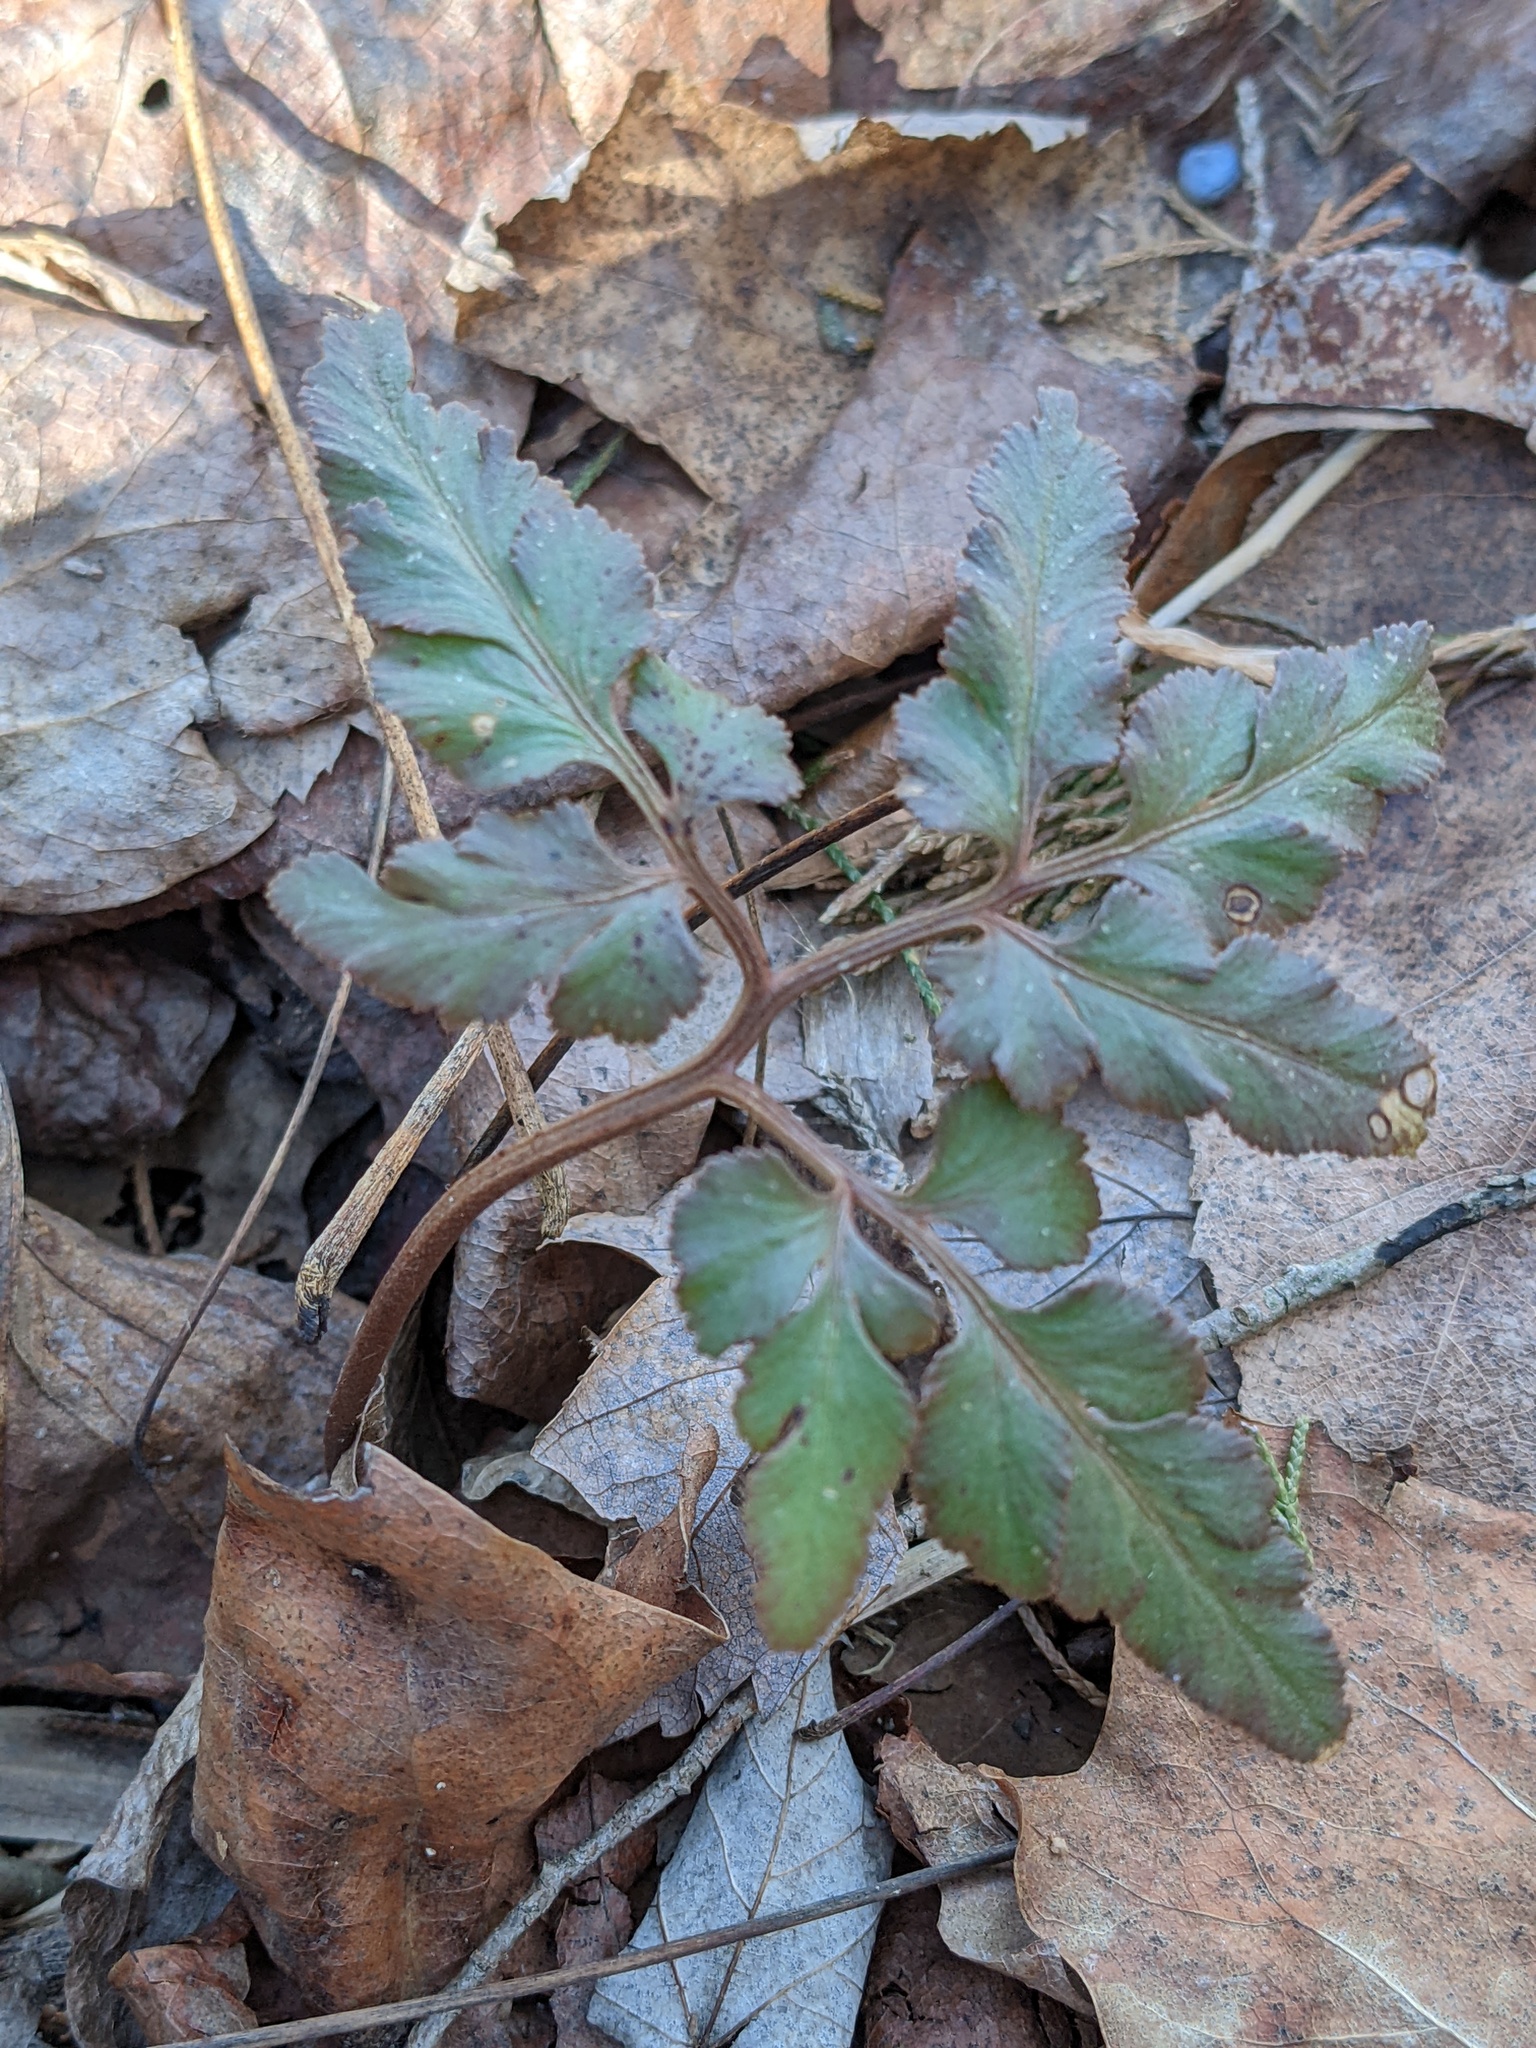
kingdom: Plantae
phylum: Tracheophyta
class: Polypodiopsida
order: Ophioglossales
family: Ophioglossaceae
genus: Sceptridium
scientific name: Sceptridium dissectum
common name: Cut-leaved grapefern
